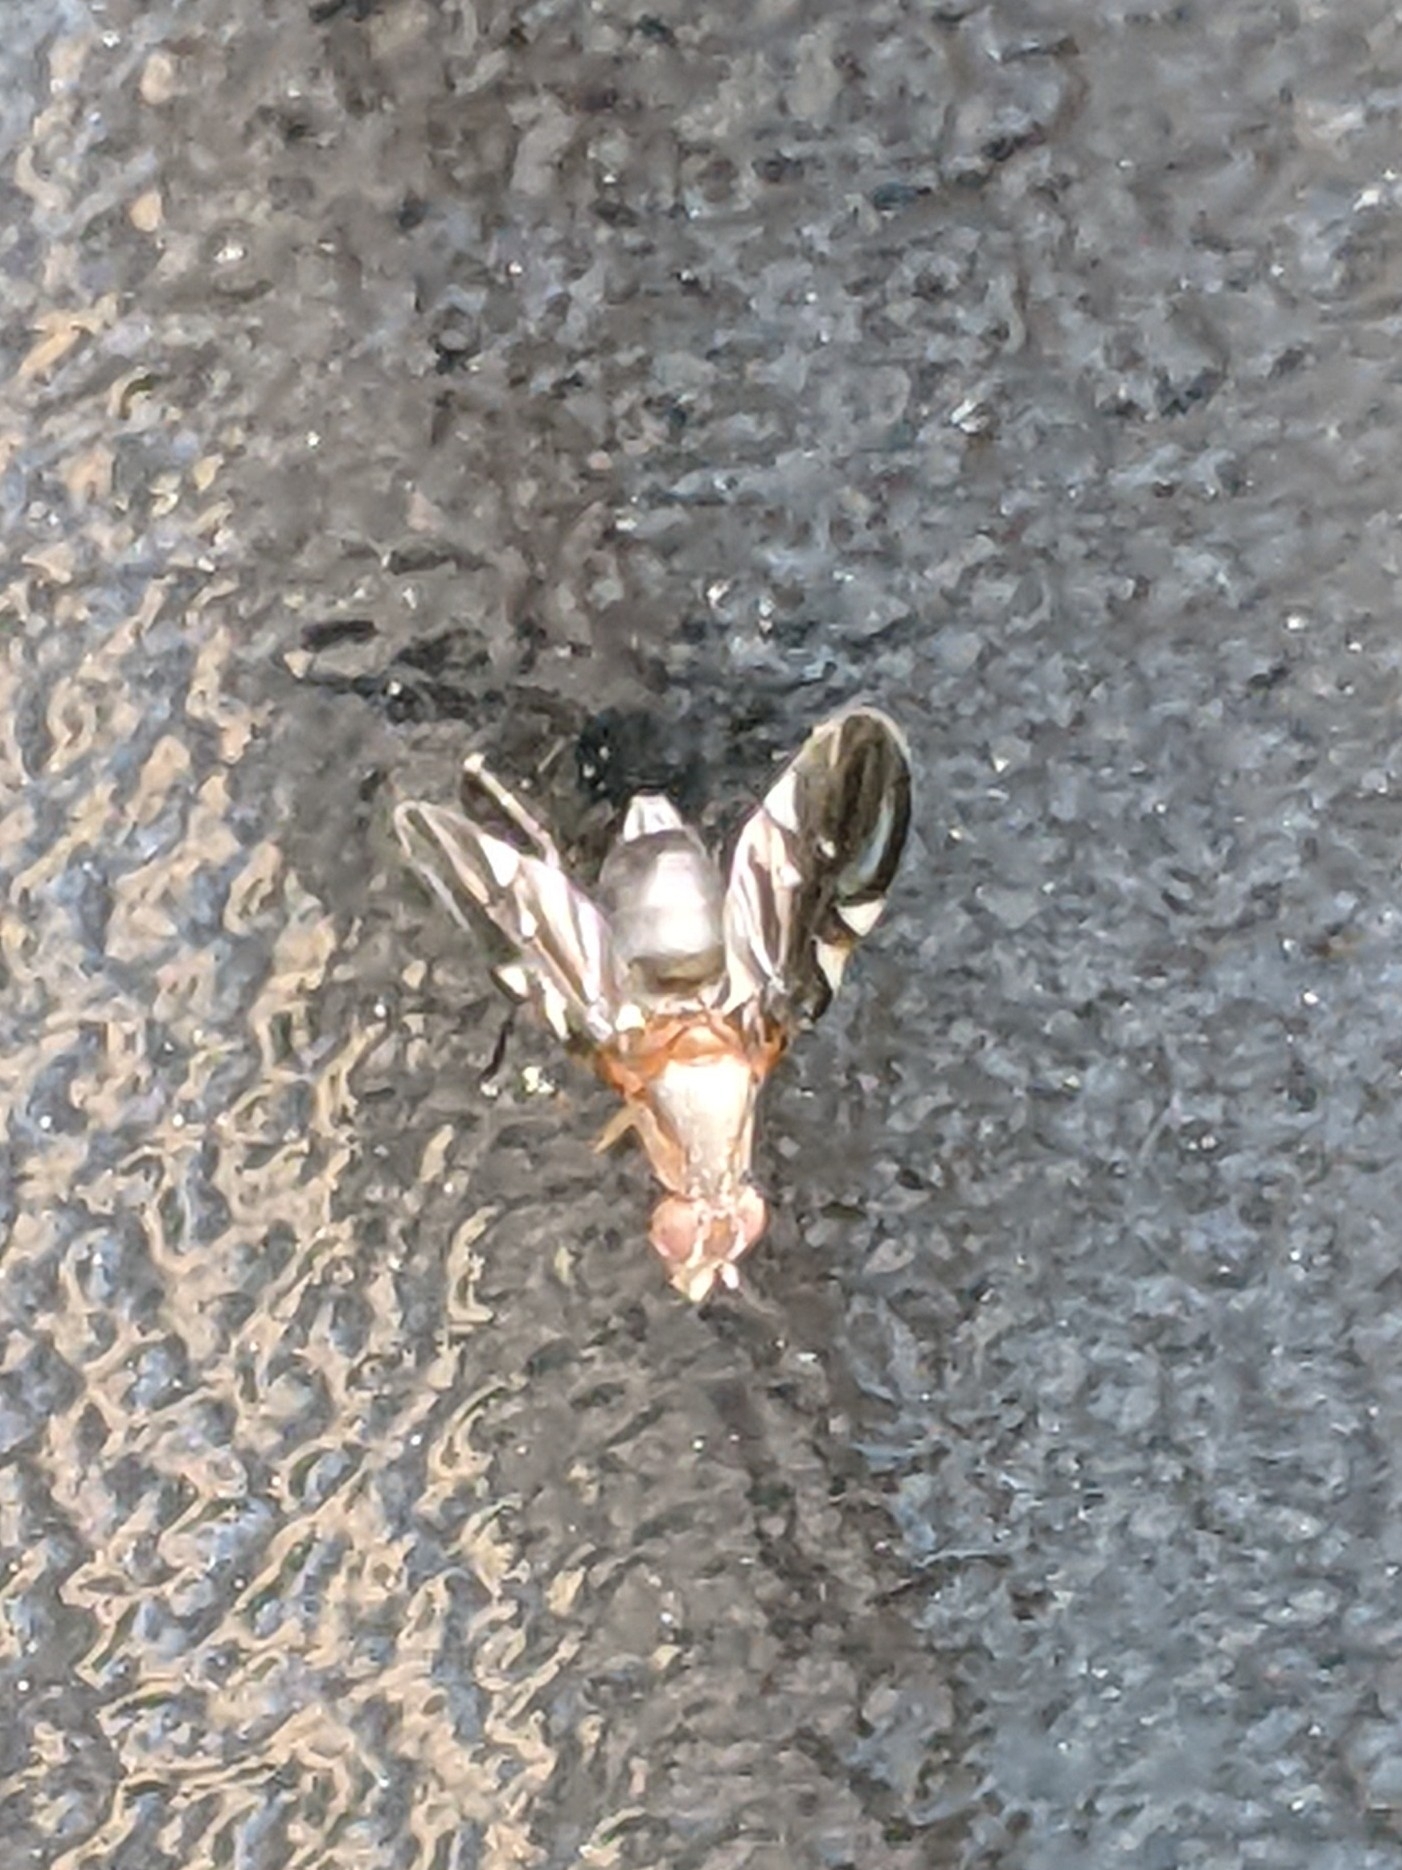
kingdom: Animalia
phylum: Arthropoda
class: Insecta
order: Diptera
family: Ulidiidae
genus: Delphinia
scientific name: Delphinia picta
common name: Common picture-winged fly
